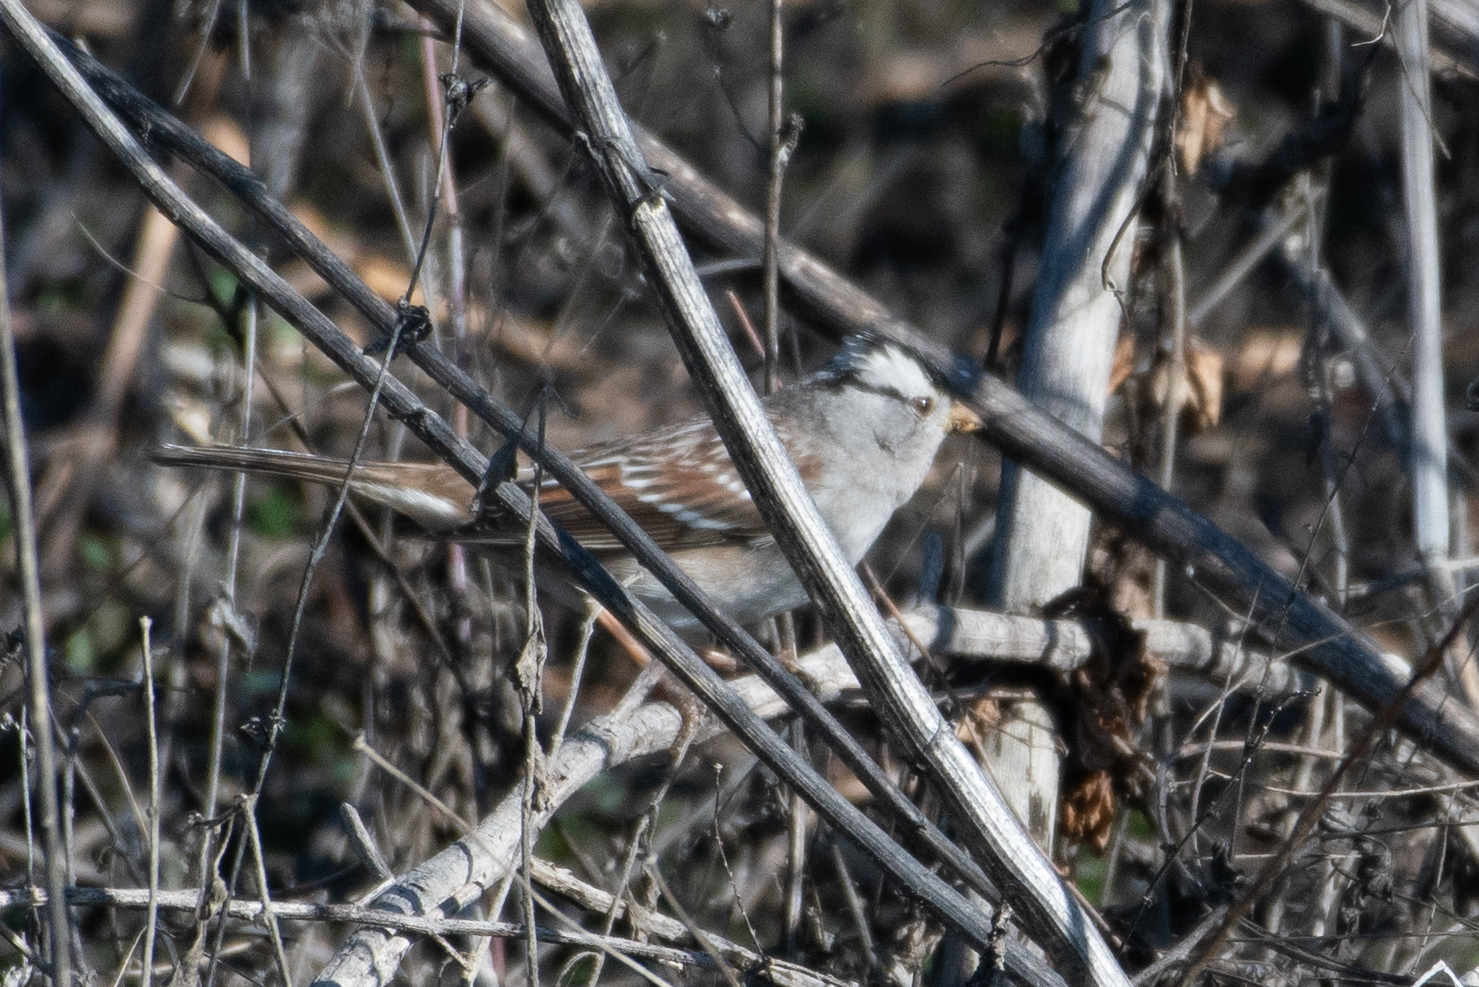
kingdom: Animalia
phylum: Chordata
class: Aves
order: Passeriformes
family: Passerellidae
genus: Zonotrichia
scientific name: Zonotrichia leucophrys
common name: White-crowned sparrow
